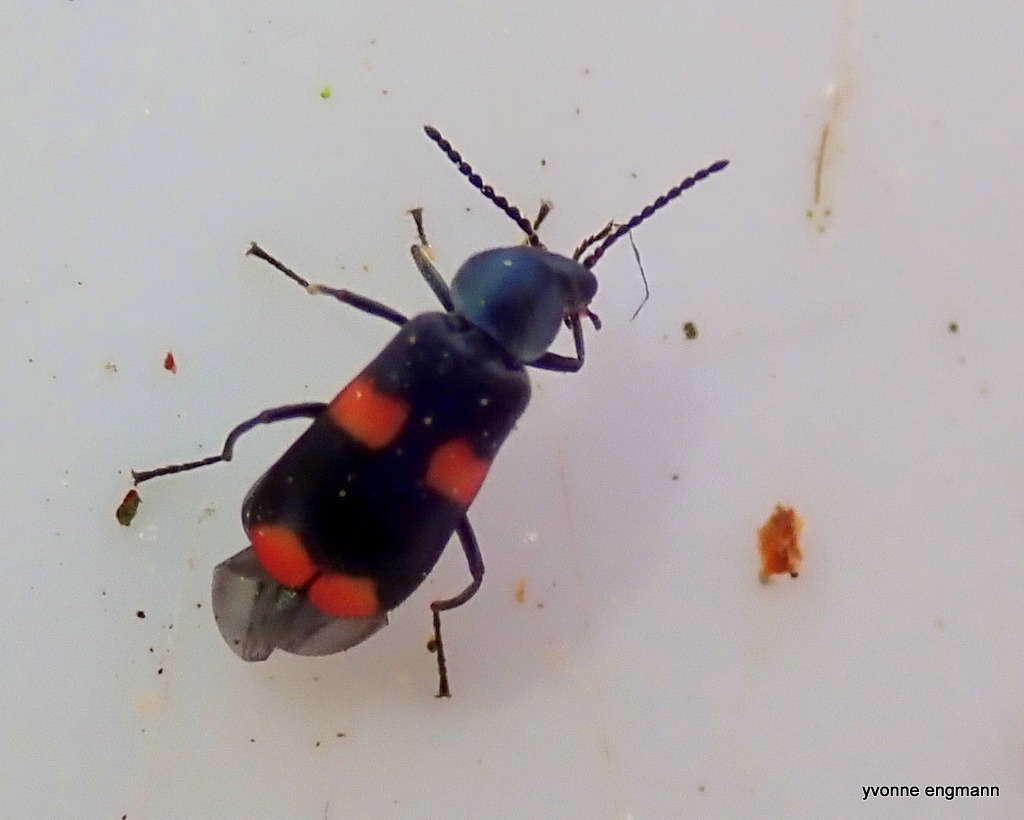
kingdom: Animalia
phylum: Arthropoda
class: Insecta
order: Coleoptera
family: Melyridae
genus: Anthocomus
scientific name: Anthocomus fasciatus
